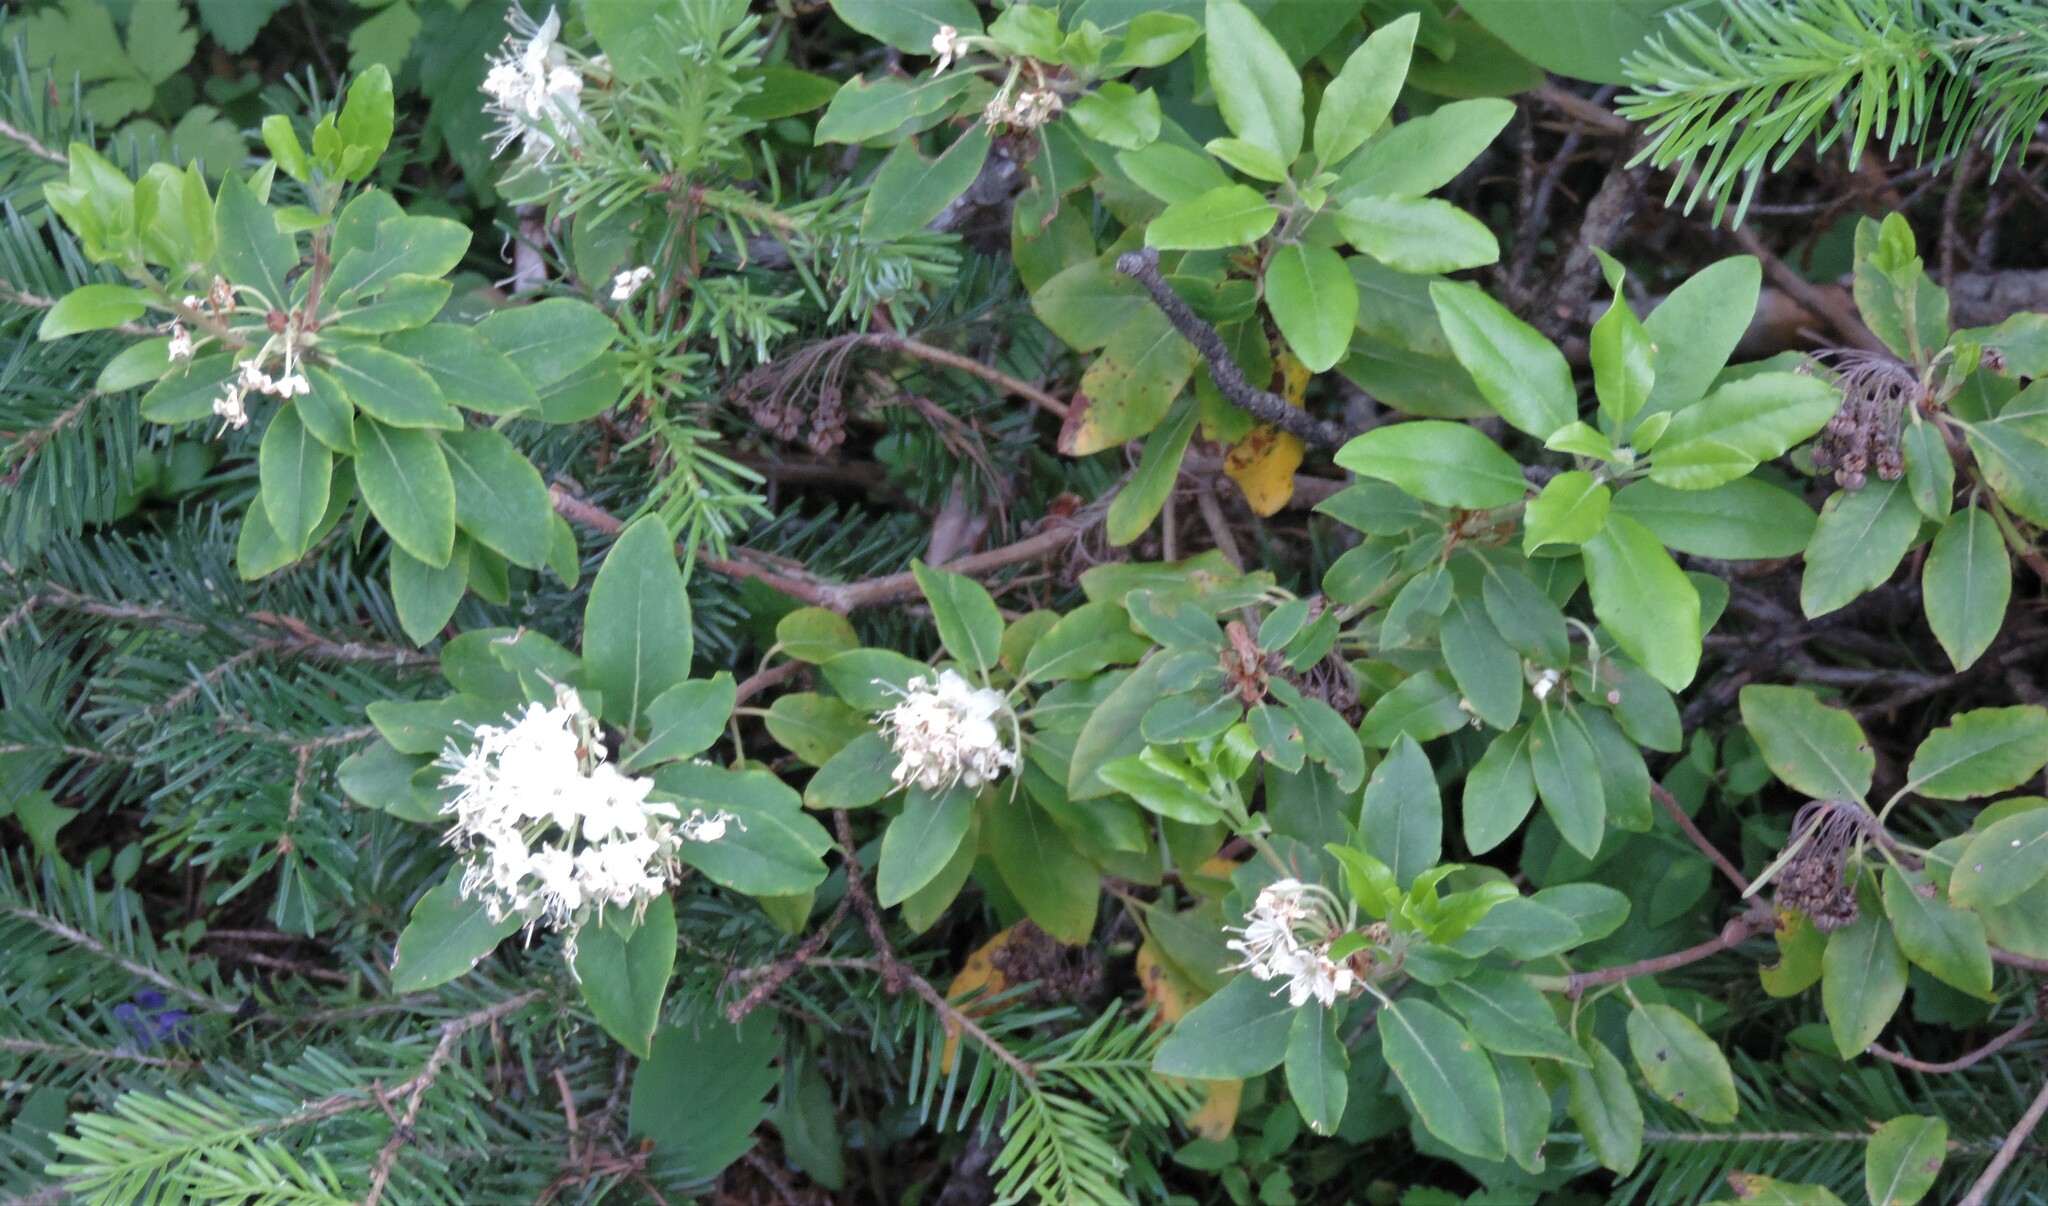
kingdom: Plantae
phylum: Tracheophyta
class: Magnoliopsida
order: Ericales
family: Ericaceae
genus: Rhododendron
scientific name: Rhododendron columbianum
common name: Western labrador tea
